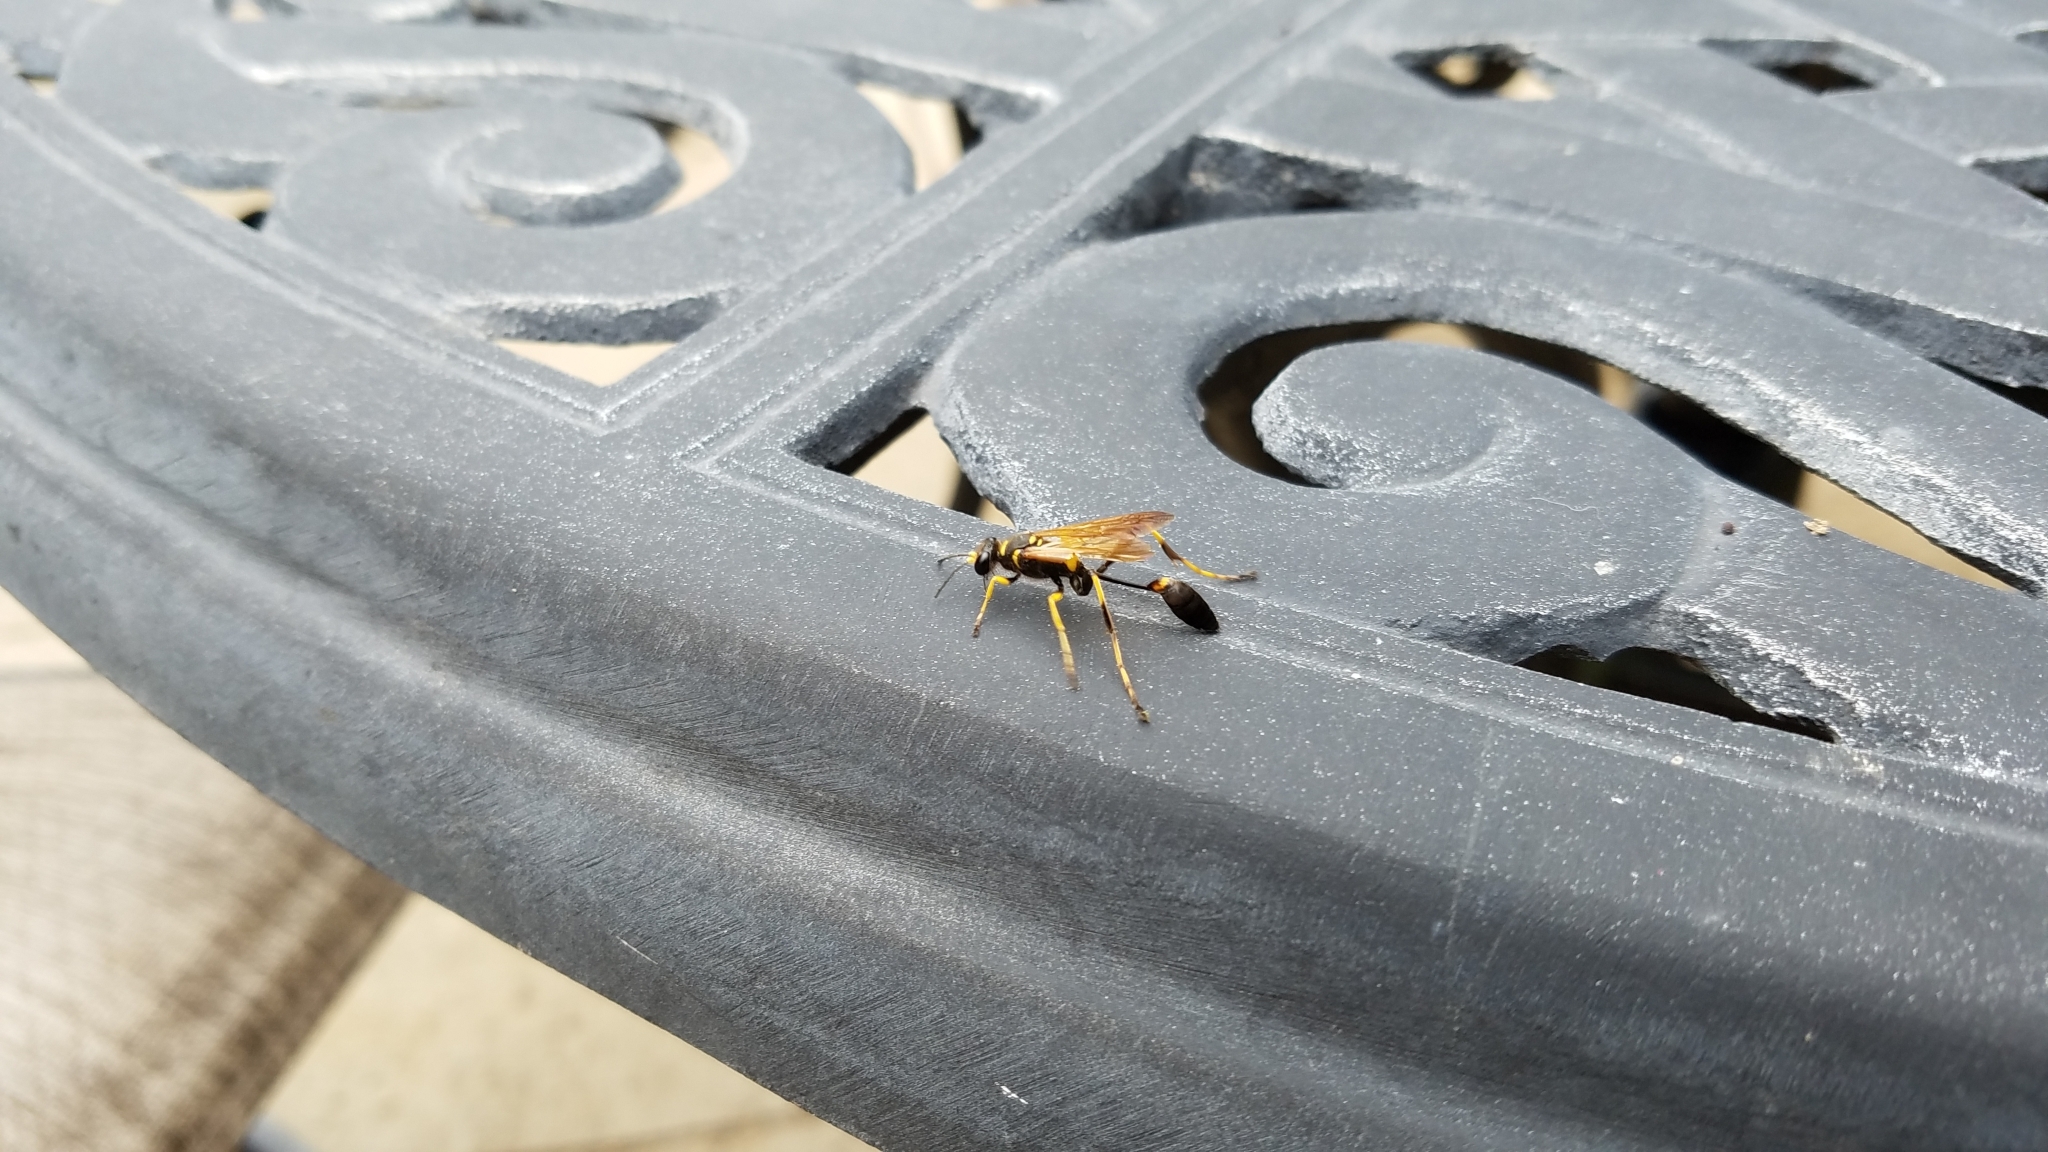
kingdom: Animalia
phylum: Arthropoda
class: Insecta
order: Hymenoptera
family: Sphecidae
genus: Sceliphron
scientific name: Sceliphron caementarium
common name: Mud dauber
